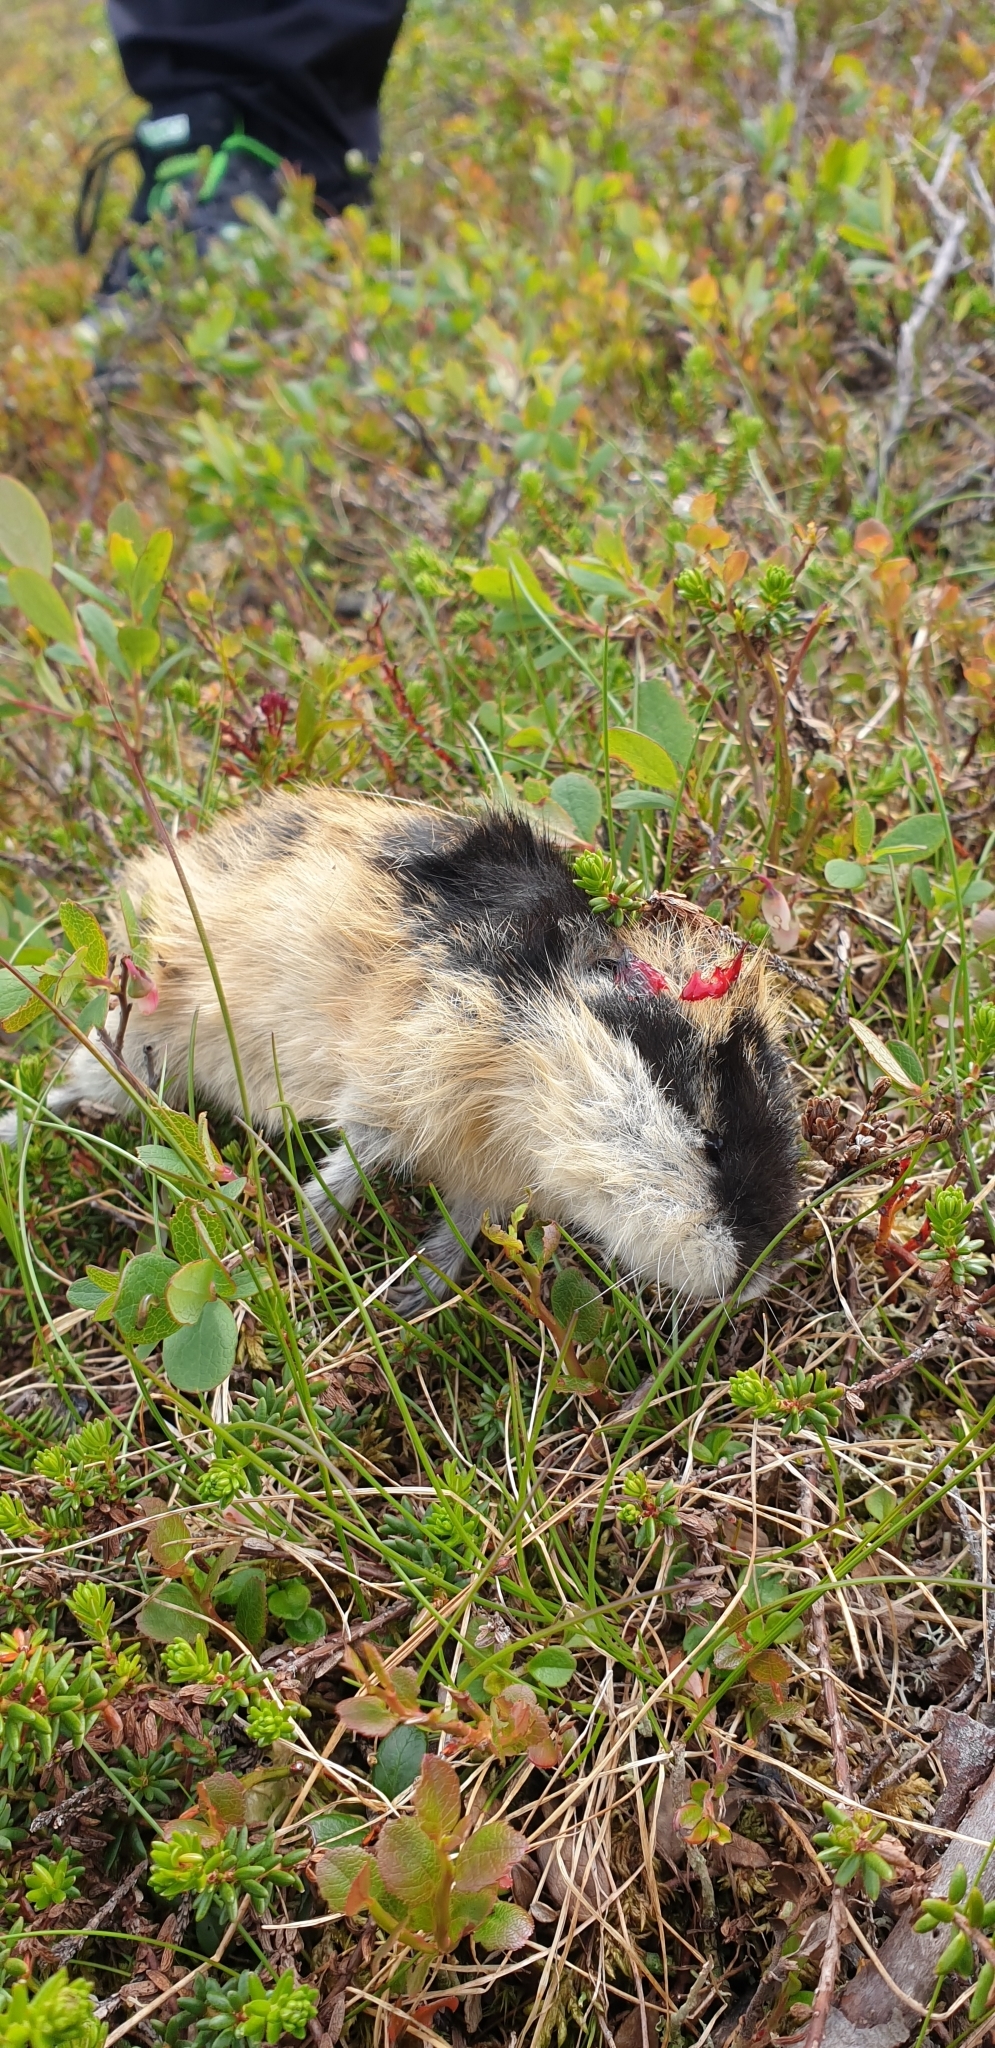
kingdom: Animalia
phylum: Chordata
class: Mammalia
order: Rodentia
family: Cricetidae
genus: Lemmus
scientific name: Lemmus lemmus
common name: Norway lemming
